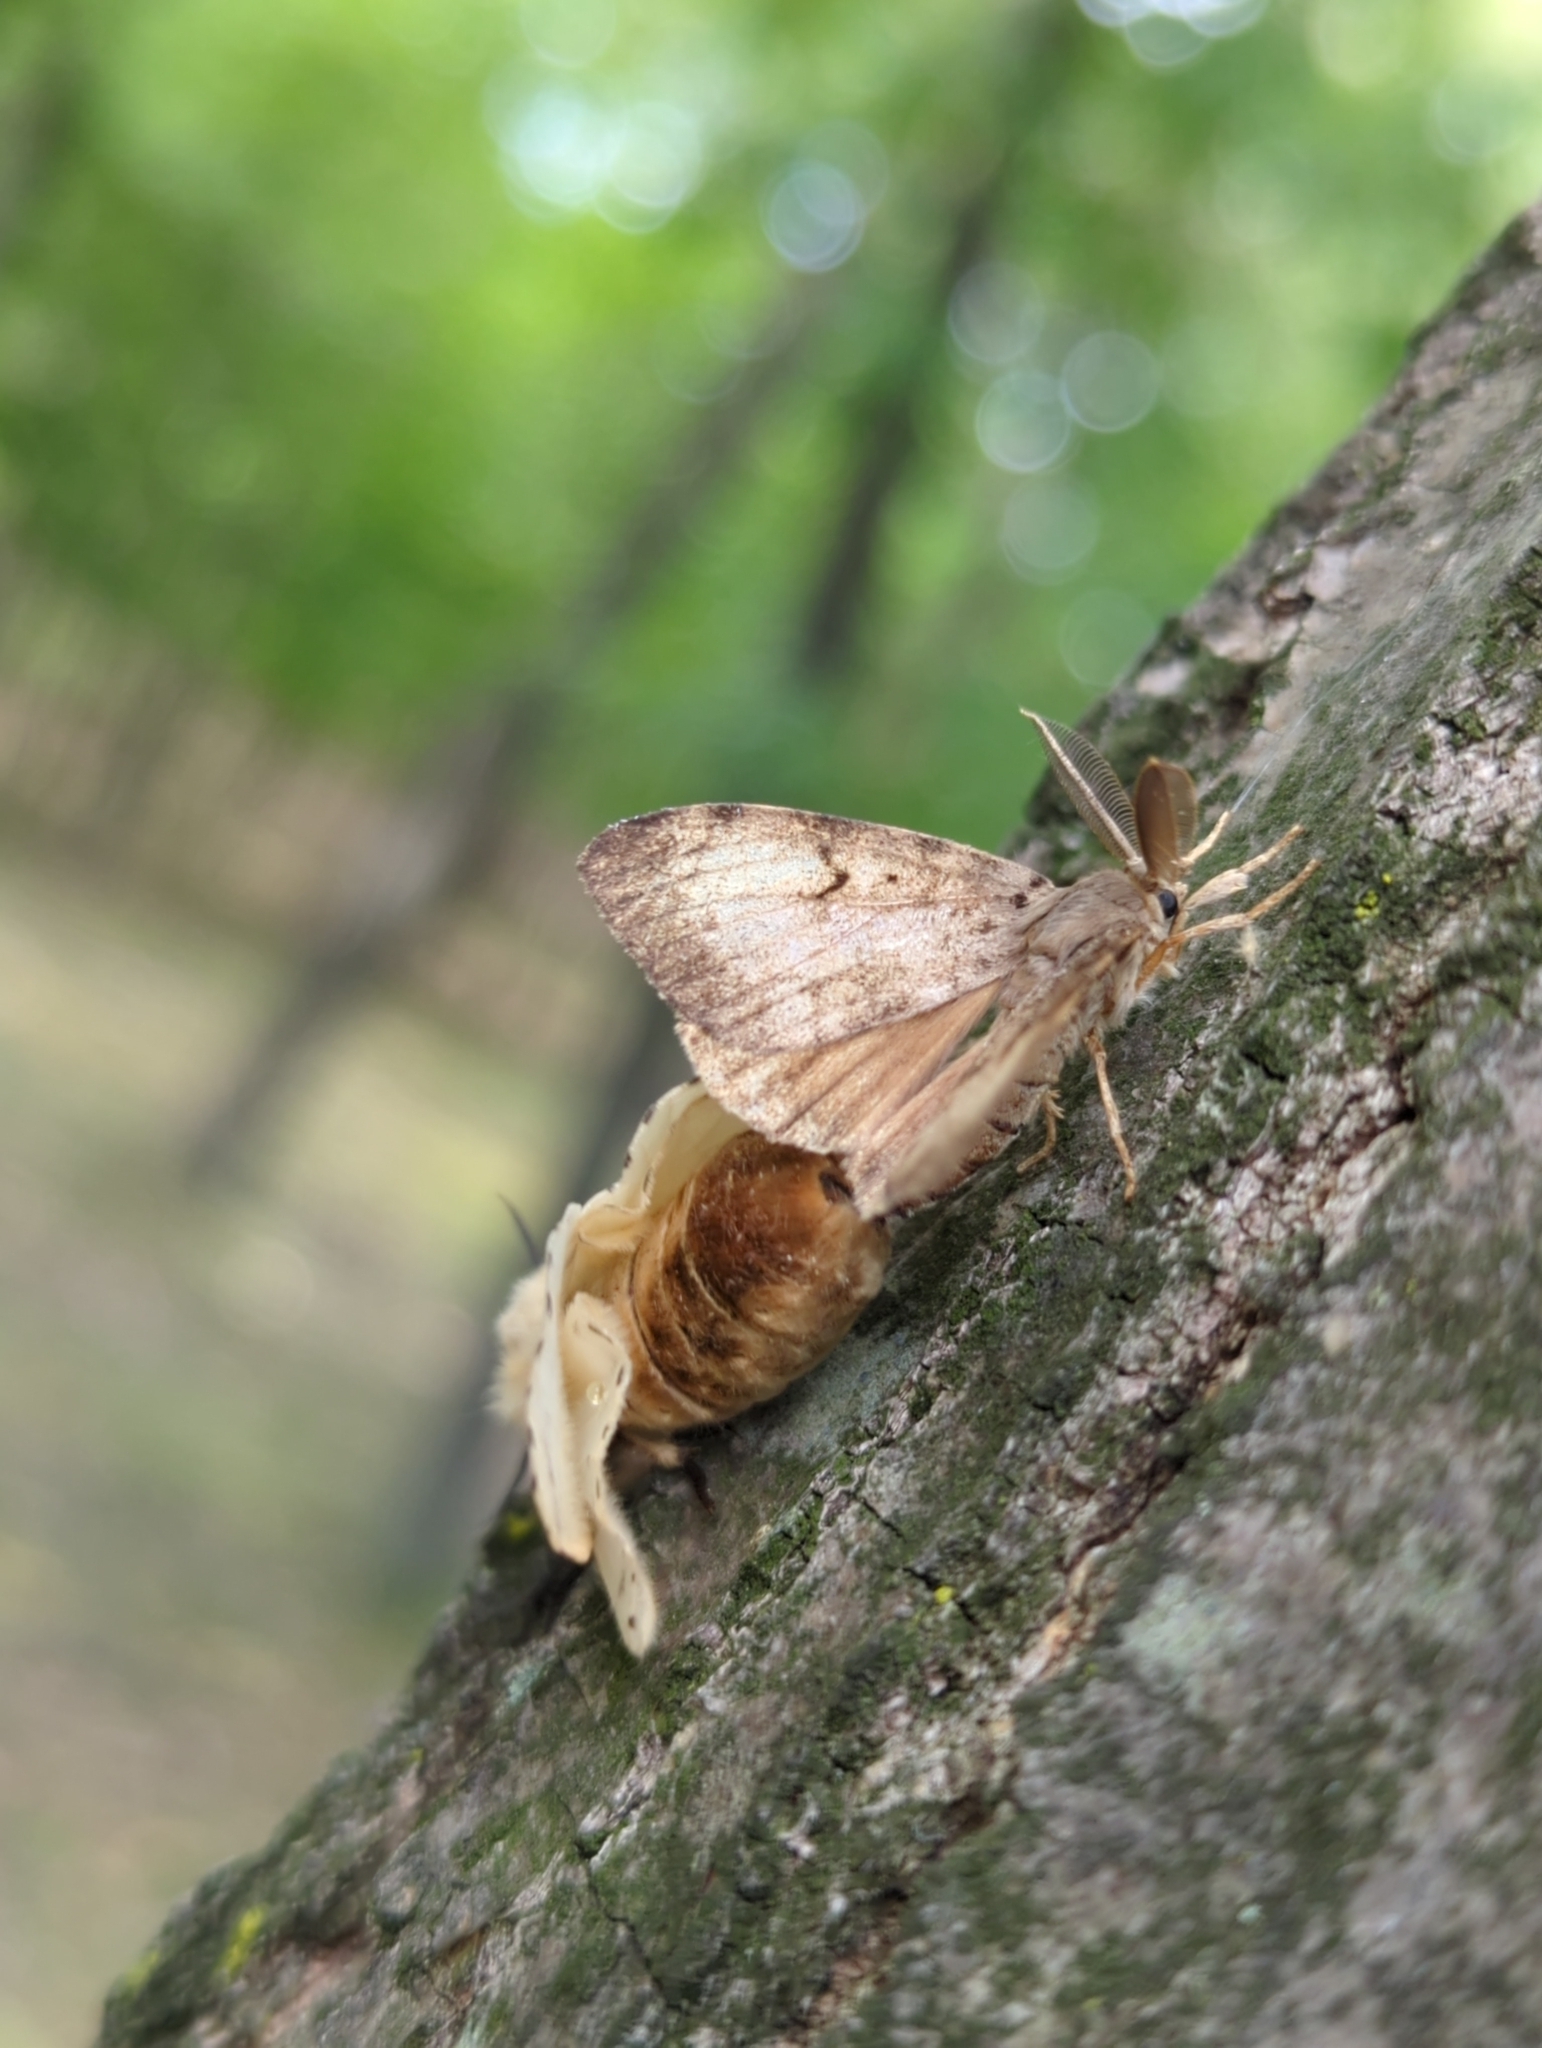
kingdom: Animalia
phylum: Arthropoda
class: Insecta
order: Lepidoptera
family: Erebidae
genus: Lymantria
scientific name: Lymantria dispar
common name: Gypsy moth
